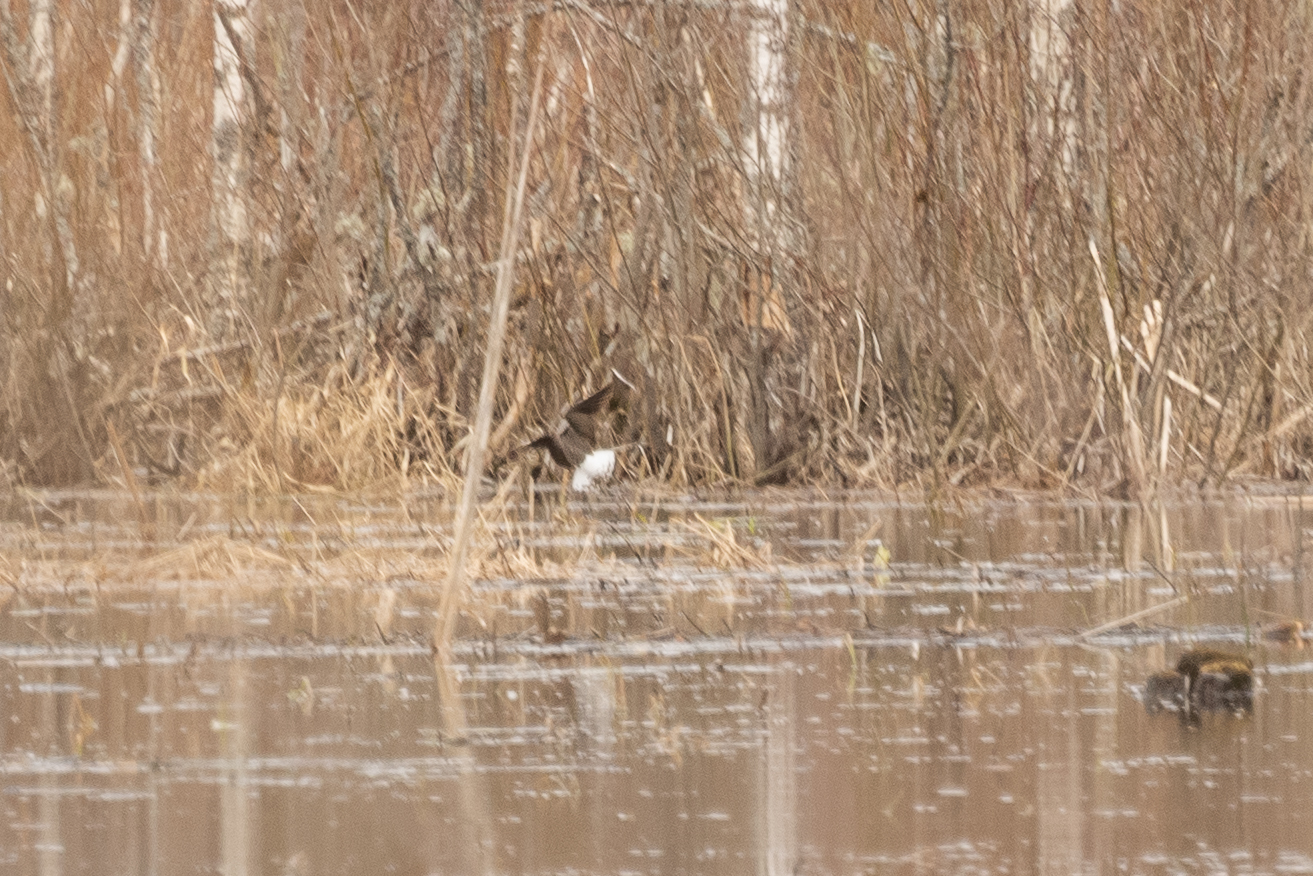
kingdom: Animalia
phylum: Chordata
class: Aves
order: Charadriiformes
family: Scolopacidae
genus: Tringa
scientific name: Tringa ochropus
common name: Green sandpiper
